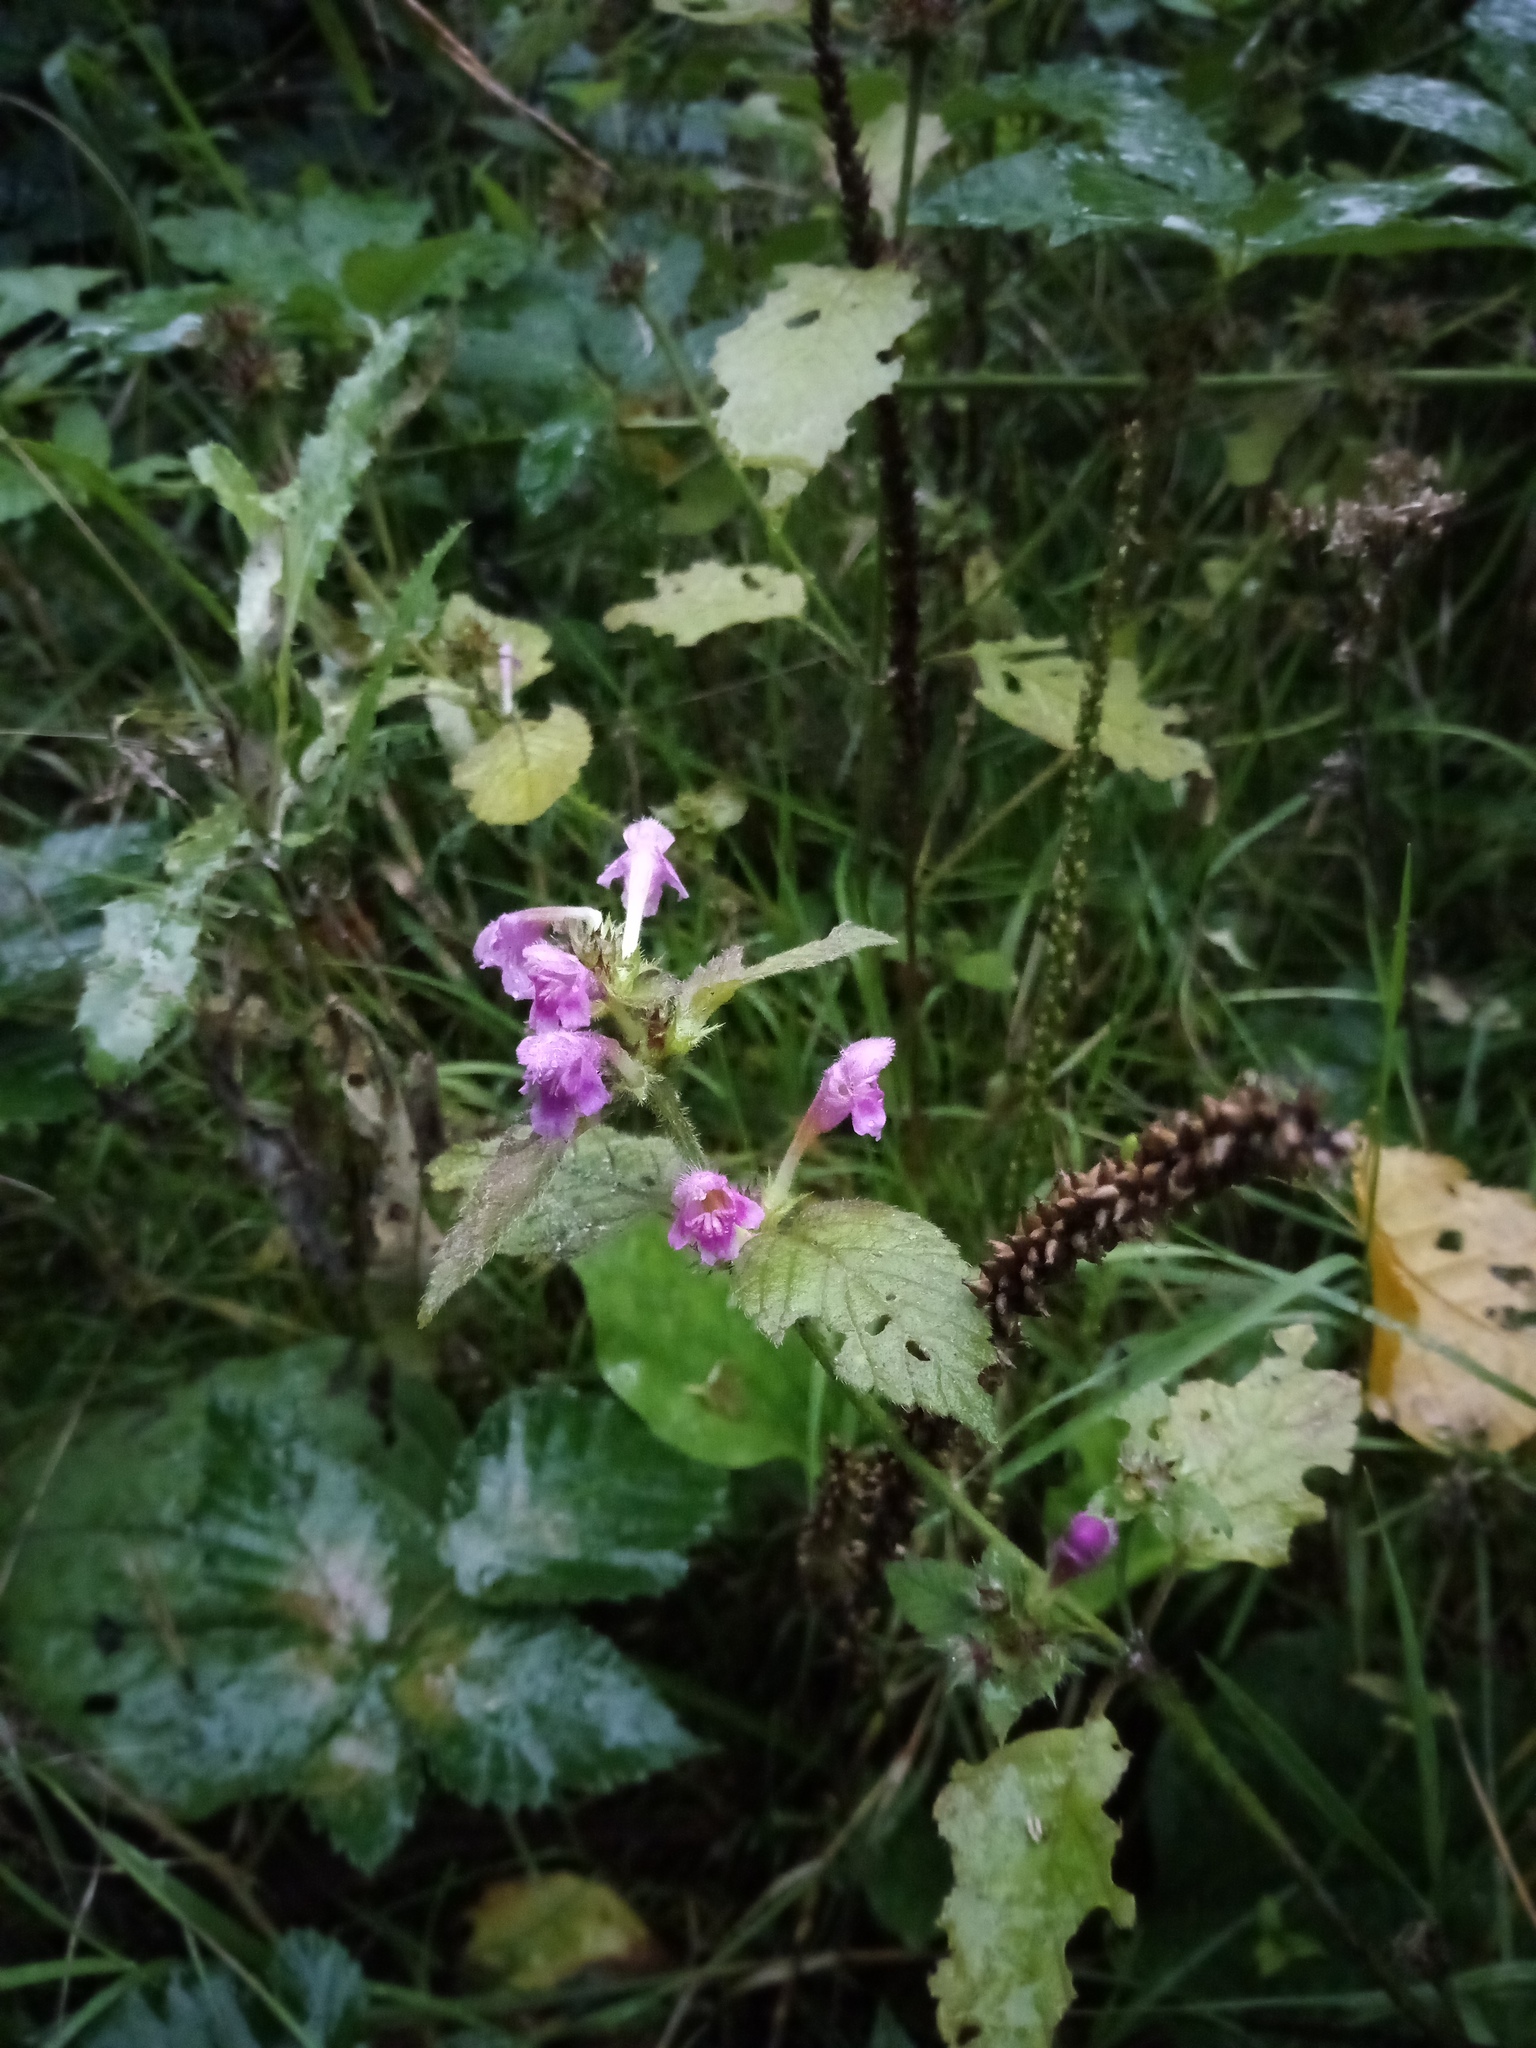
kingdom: Plantae
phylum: Tracheophyta
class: Magnoliopsida
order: Lamiales
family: Lamiaceae
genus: Galeopsis
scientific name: Galeopsis pubescens
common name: Downy hemp-nettle
